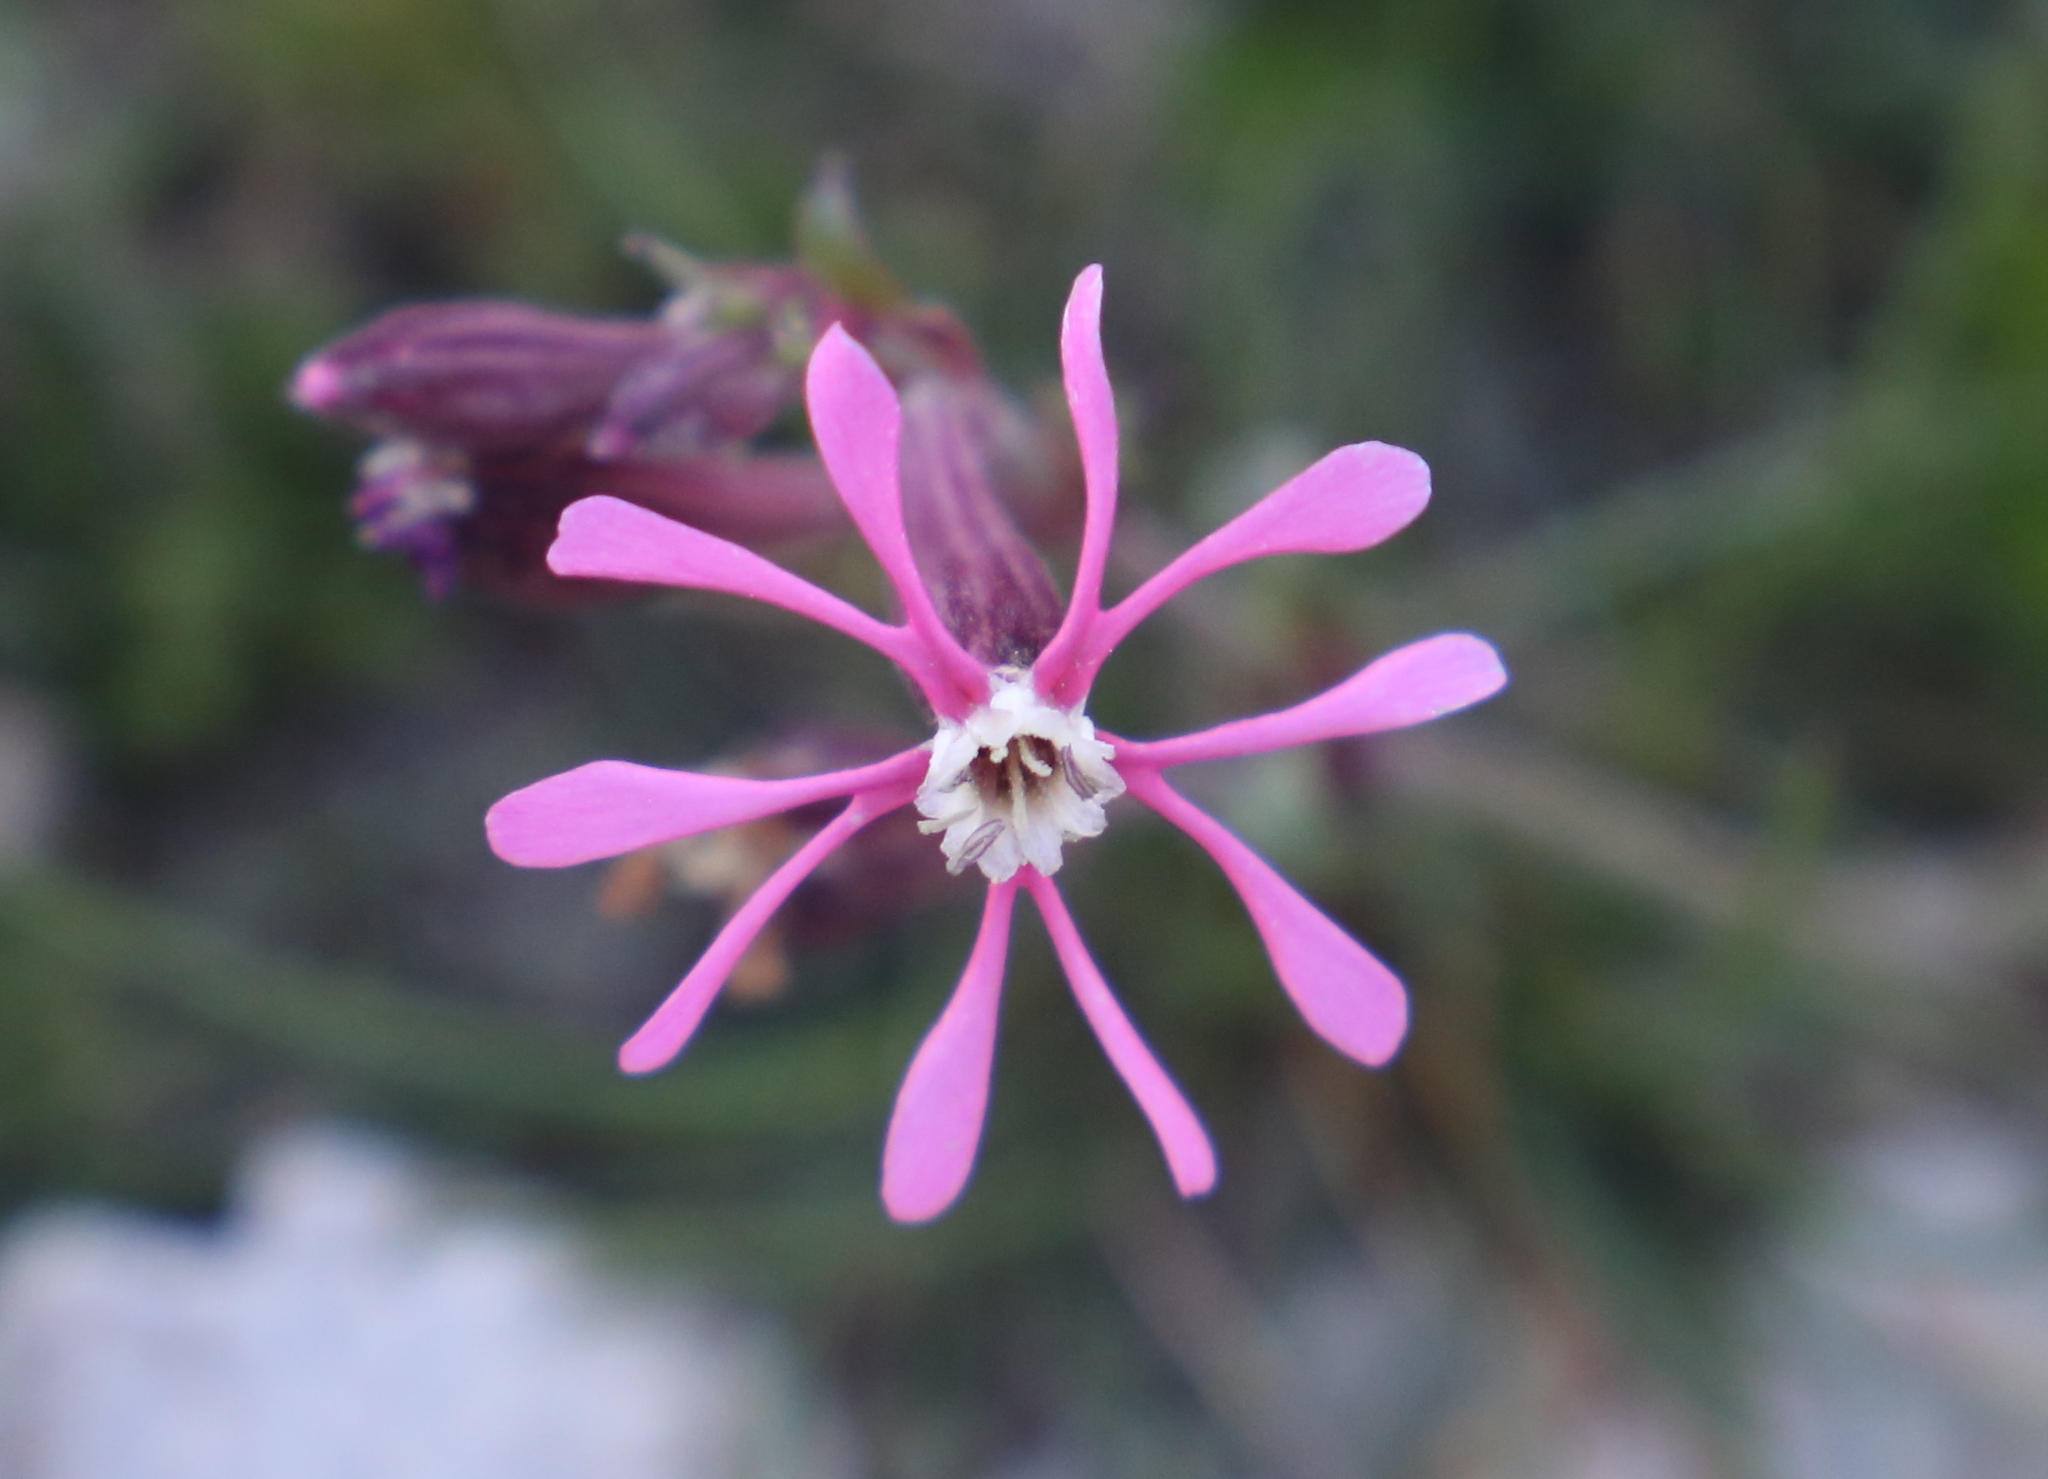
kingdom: Plantae
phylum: Tracheophyta
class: Magnoliopsida
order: Caryophyllales
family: Caryophyllaceae
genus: Silene
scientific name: Silene kemoniana
